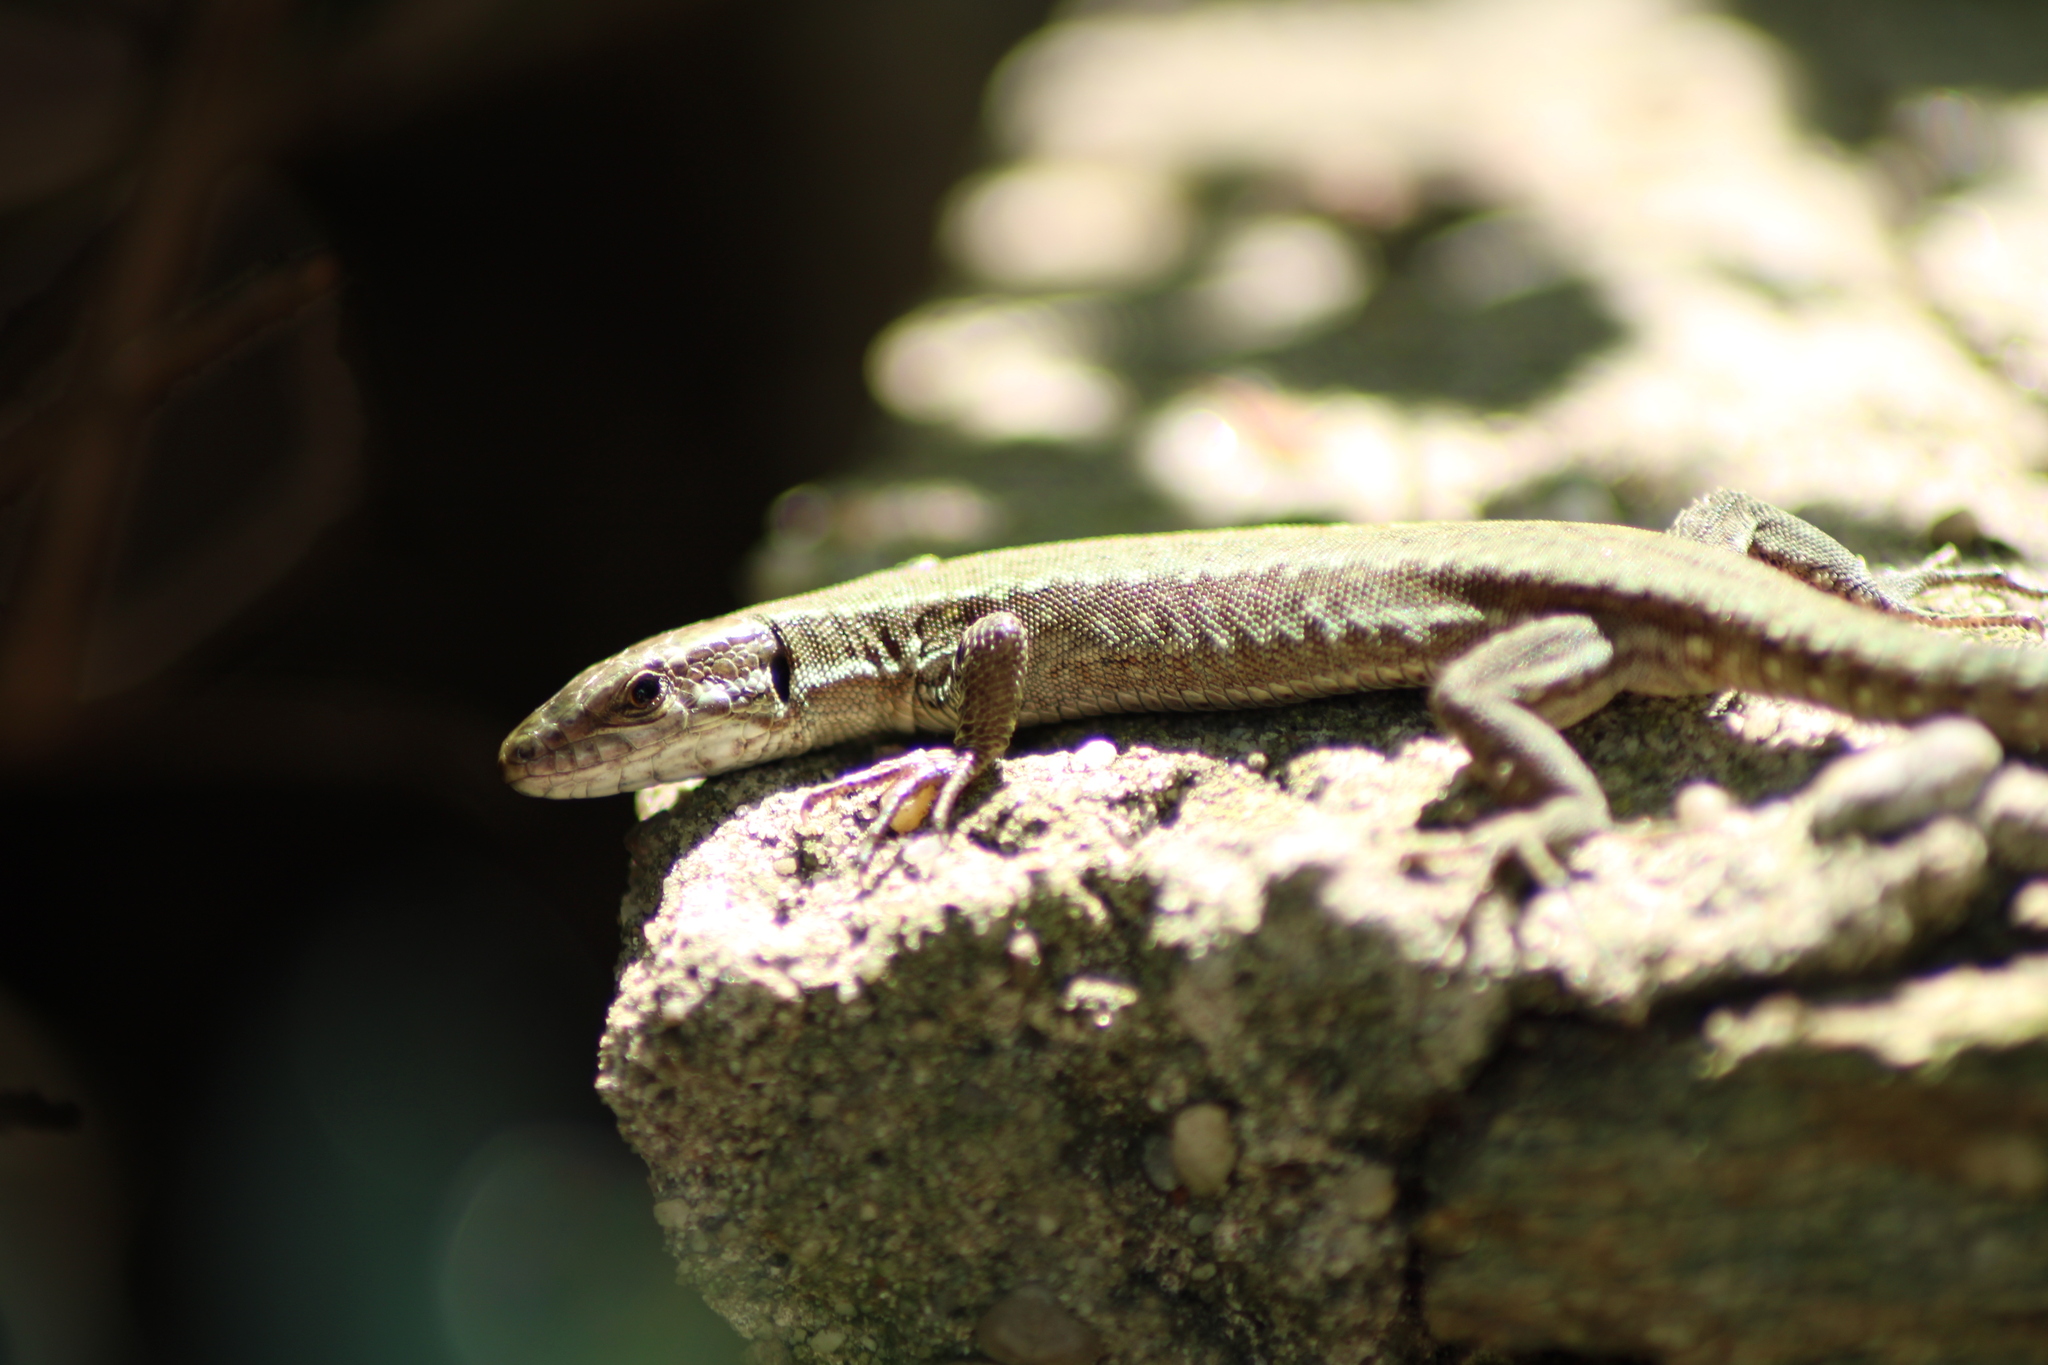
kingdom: Animalia
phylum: Chordata
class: Squamata
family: Lacertidae
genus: Podarcis
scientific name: Podarcis muralis
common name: Common wall lizard
